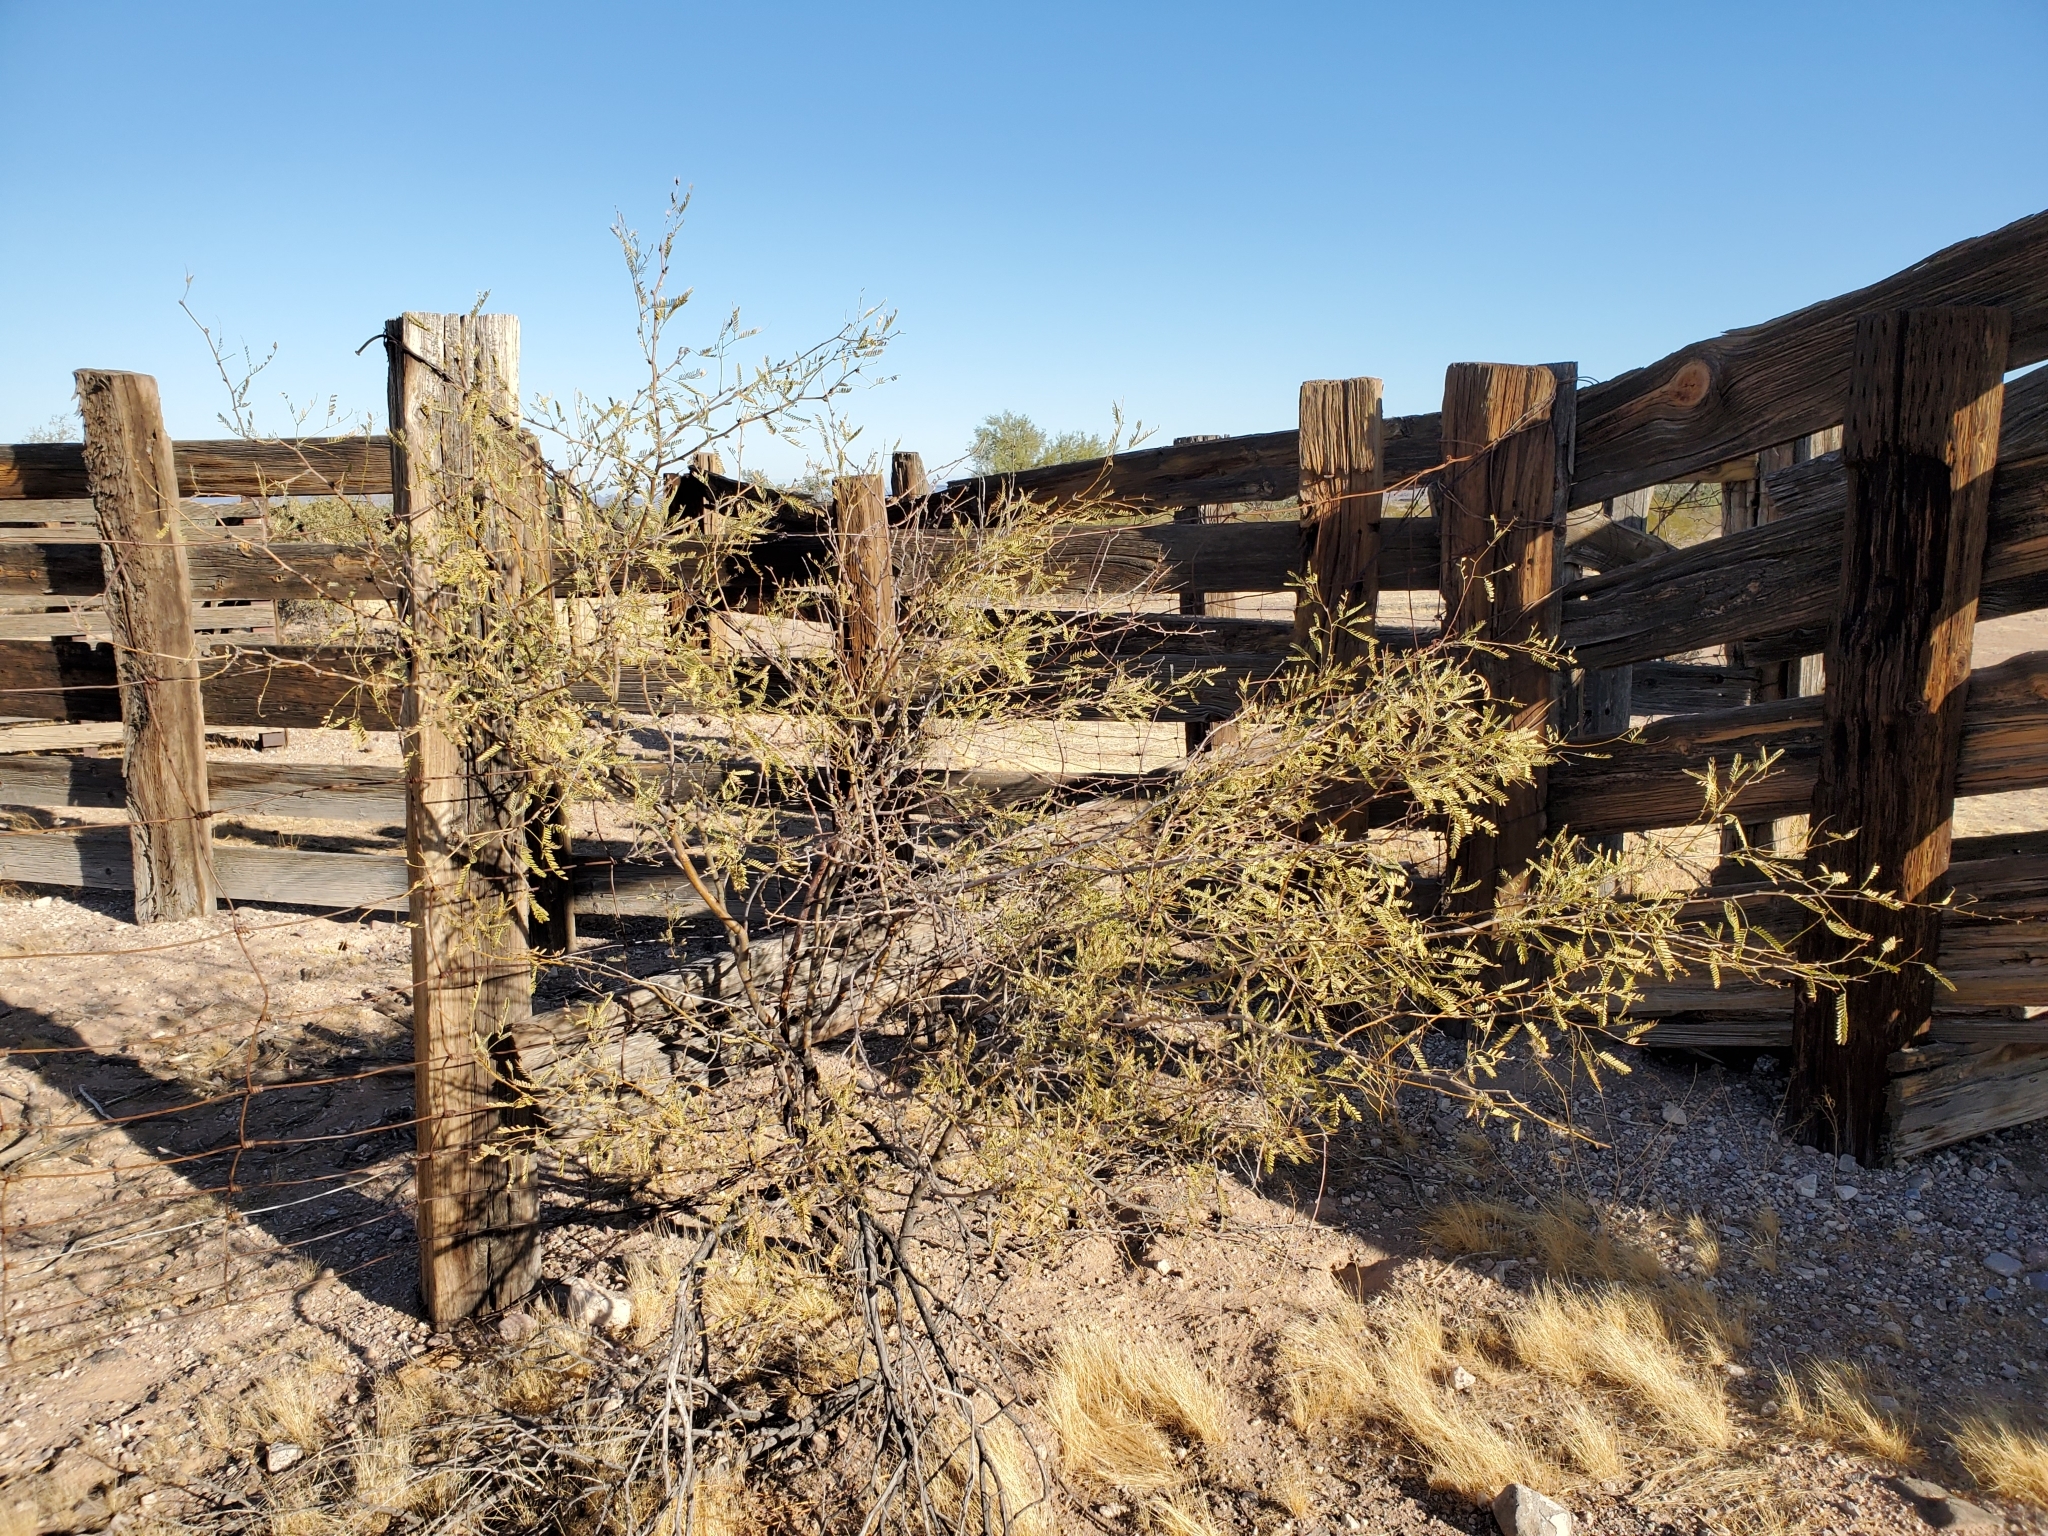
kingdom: Plantae
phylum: Tracheophyta
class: Magnoliopsida
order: Fabales
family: Fabaceae
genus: Prosopis
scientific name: Prosopis velutina
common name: Velvet mesquite
